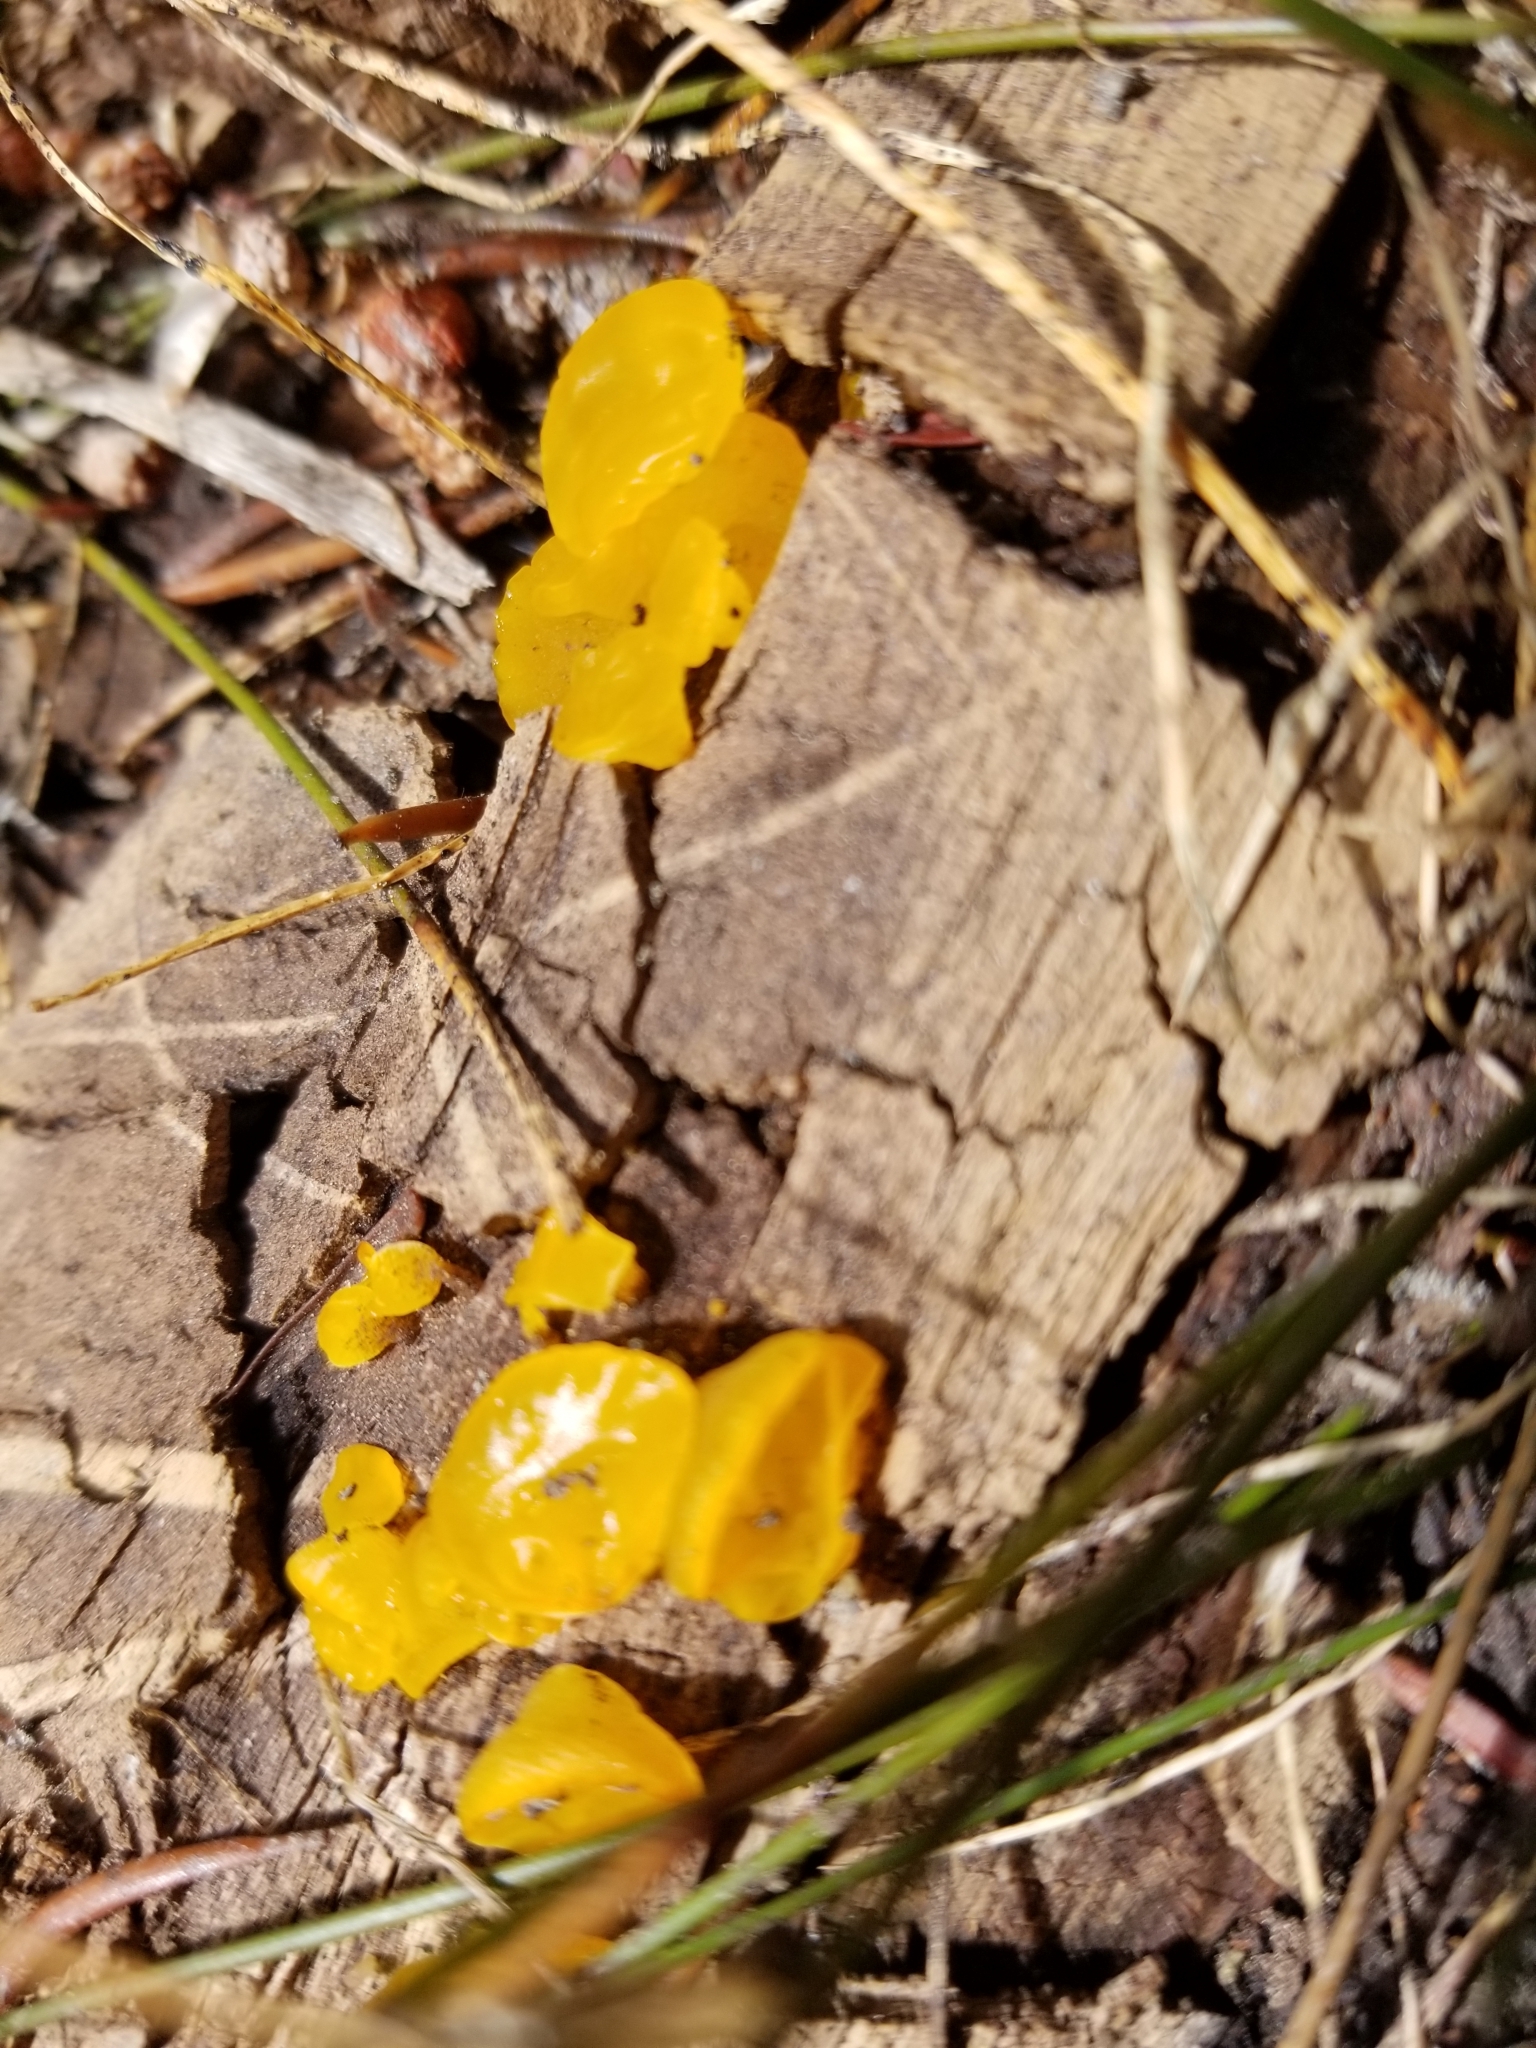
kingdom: Fungi
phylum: Basidiomycota
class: Dacrymycetes
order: Dacrymycetales
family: Dacrymycetaceae
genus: Guepiniopsis
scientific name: Guepiniopsis alpina
